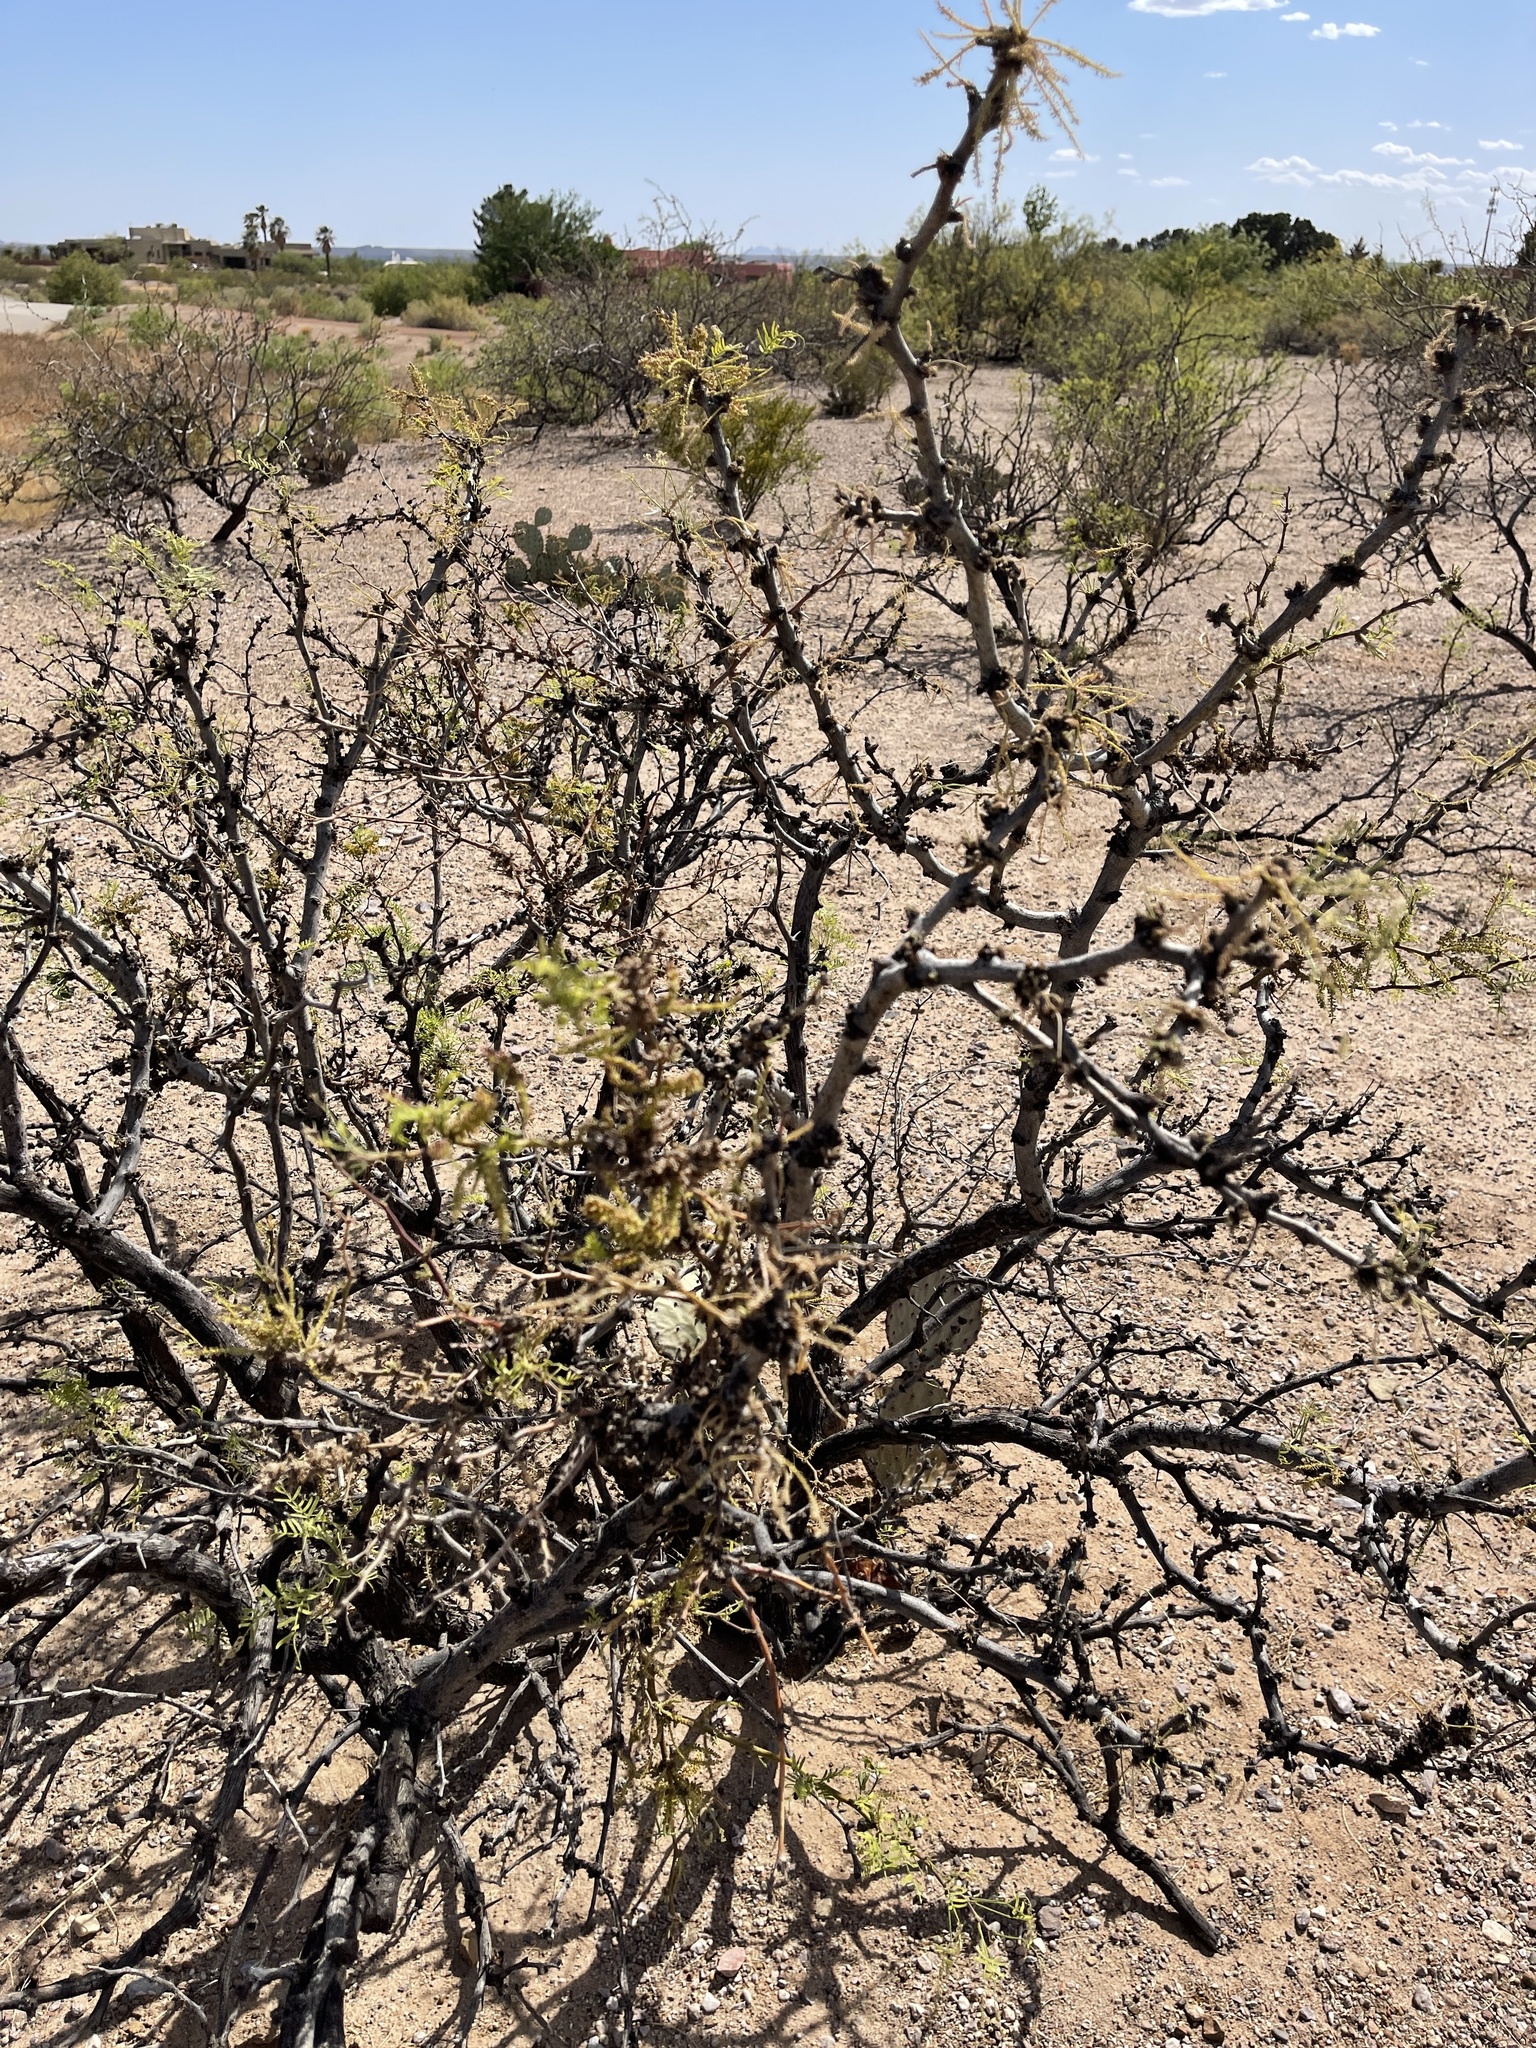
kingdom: Plantae
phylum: Tracheophyta
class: Magnoliopsida
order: Fabales
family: Fabaceae
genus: Prosopis
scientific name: Prosopis glandulosa
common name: Honey mesquite
